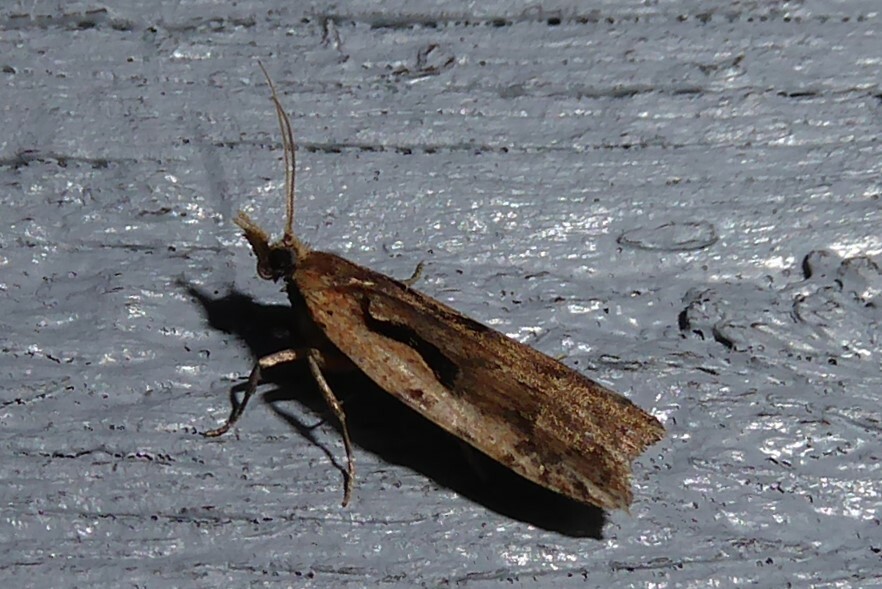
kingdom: Animalia
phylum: Arthropoda
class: Insecta
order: Lepidoptera
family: Tortricidae
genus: Cnephasia
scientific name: Cnephasia jactatana
